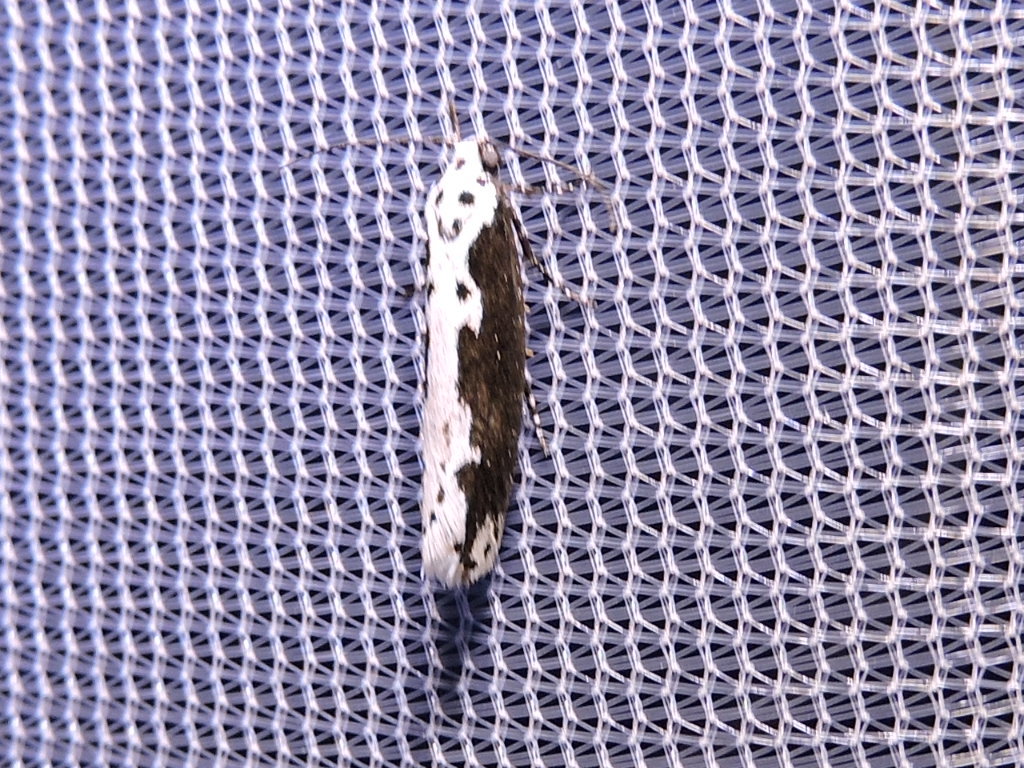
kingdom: Animalia
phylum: Arthropoda
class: Insecta
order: Lepidoptera
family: Ethmiidae
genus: Ethmia
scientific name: Ethmia semilugens
